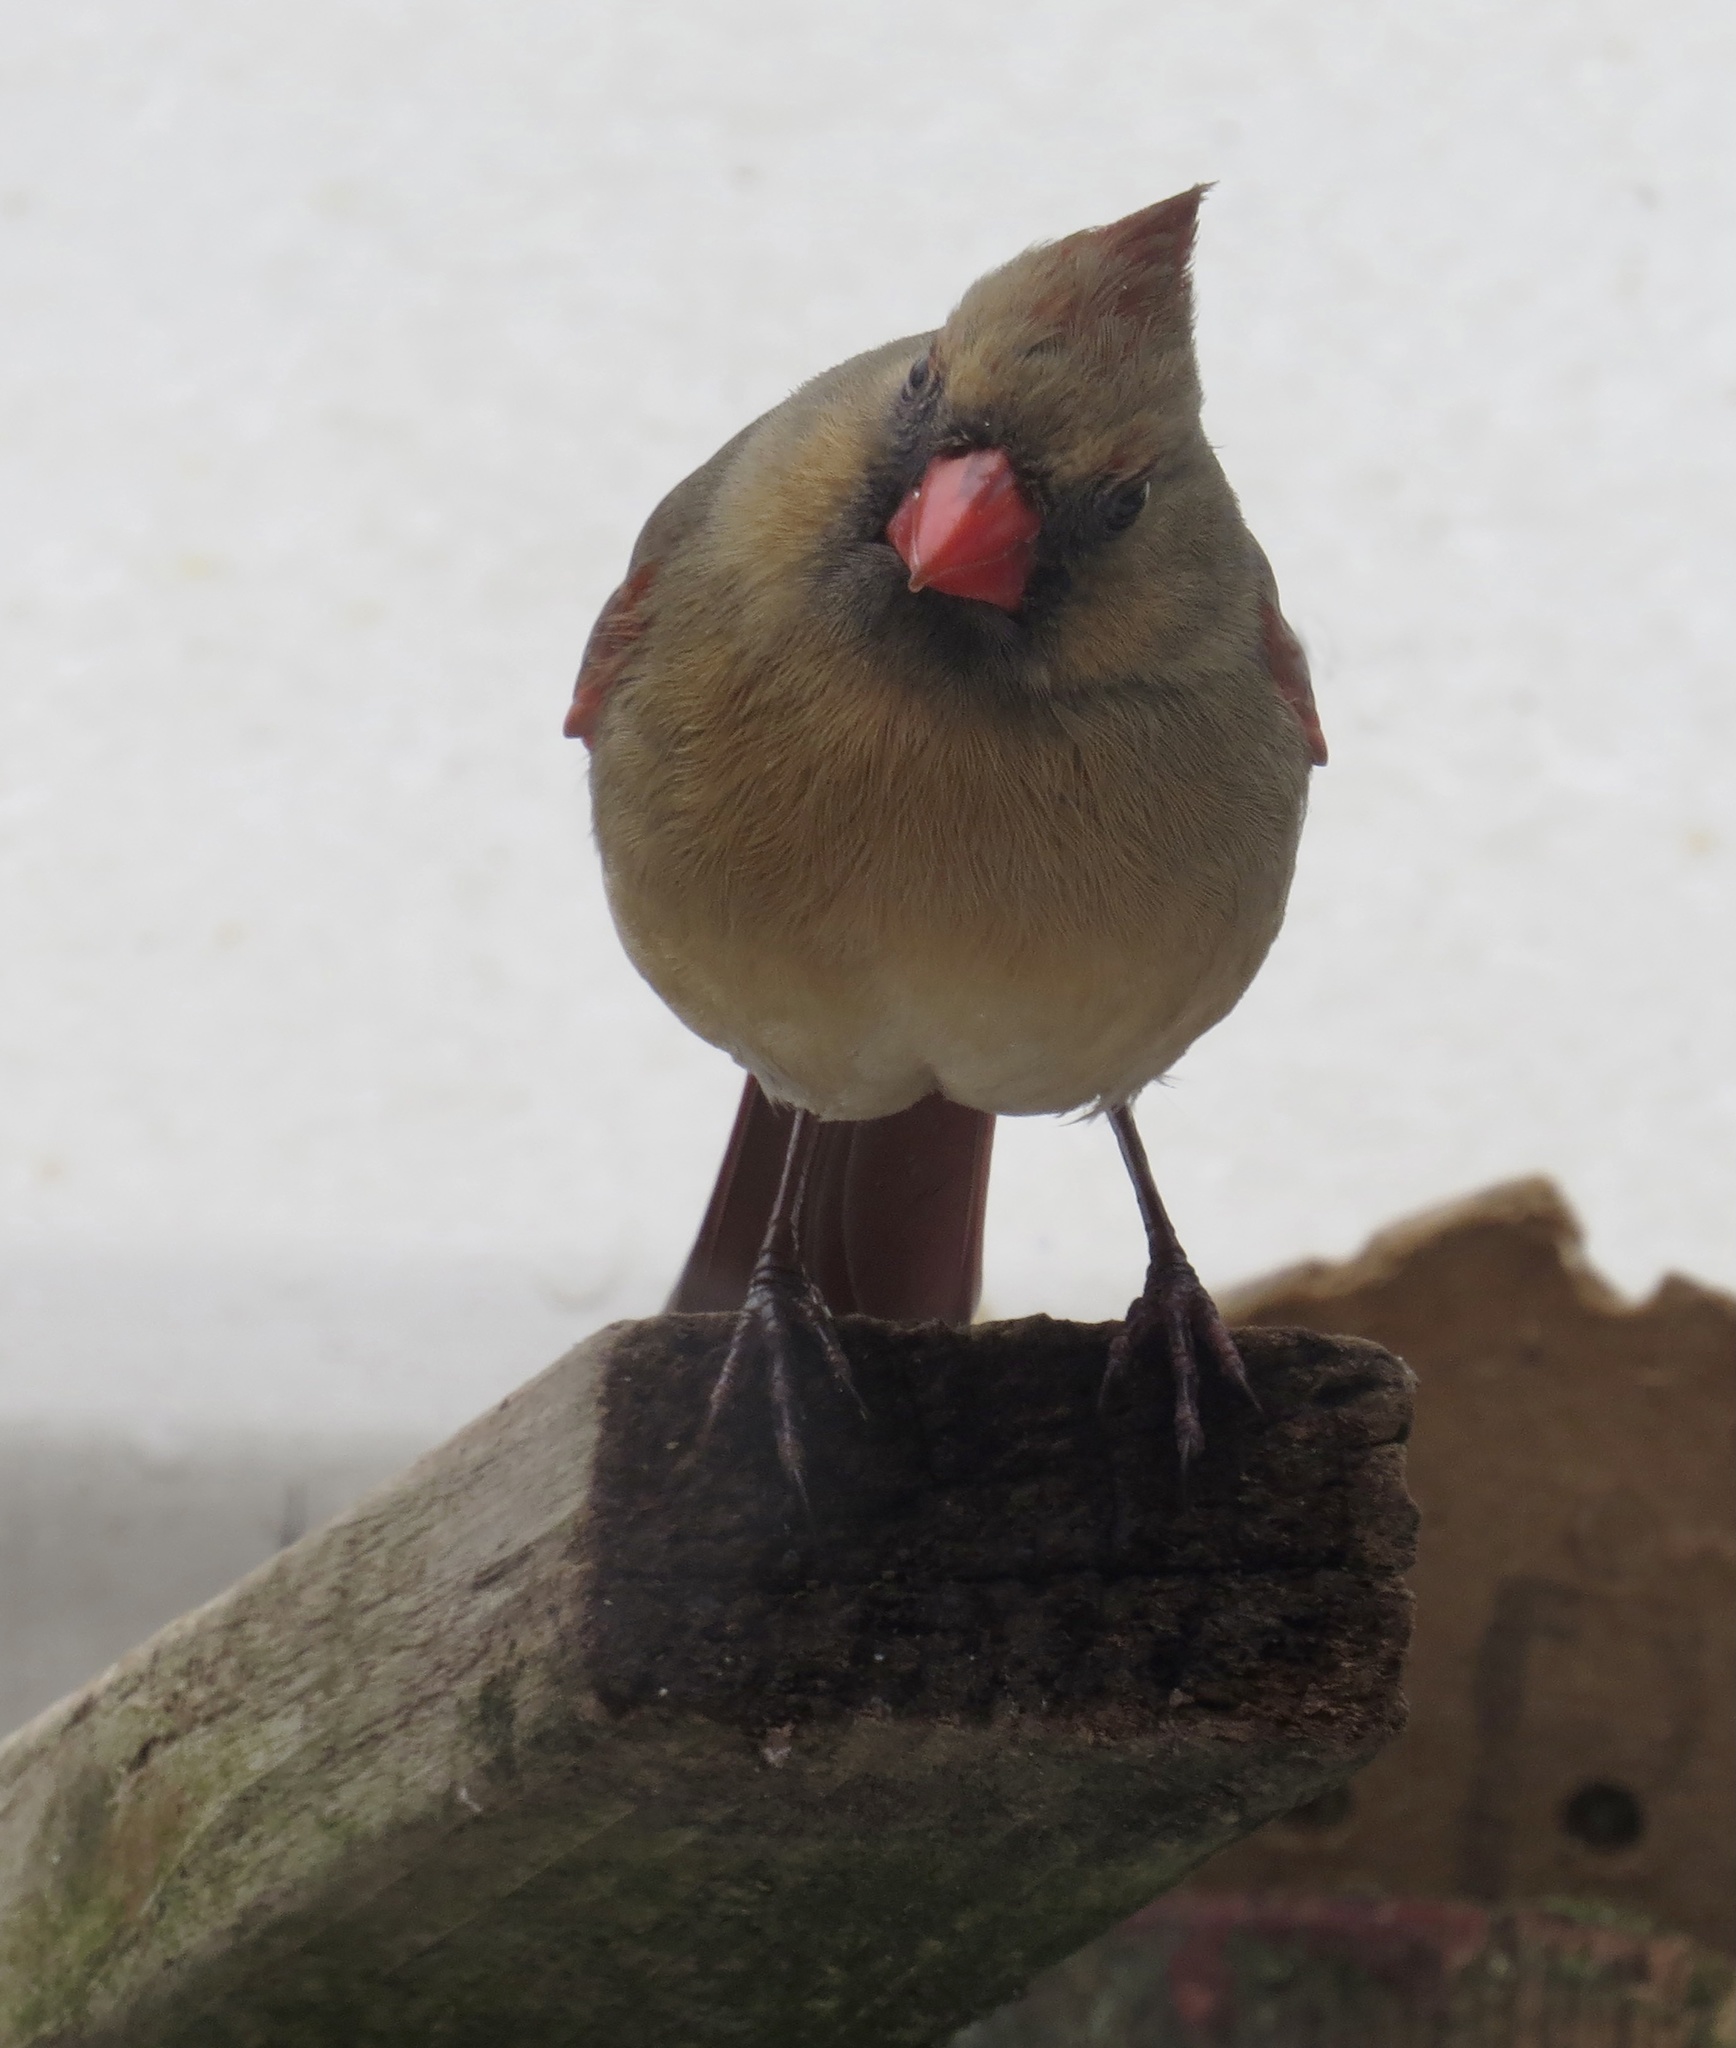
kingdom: Animalia
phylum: Chordata
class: Aves
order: Passeriformes
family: Cardinalidae
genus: Cardinalis
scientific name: Cardinalis cardinalis
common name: Northern cardinal
